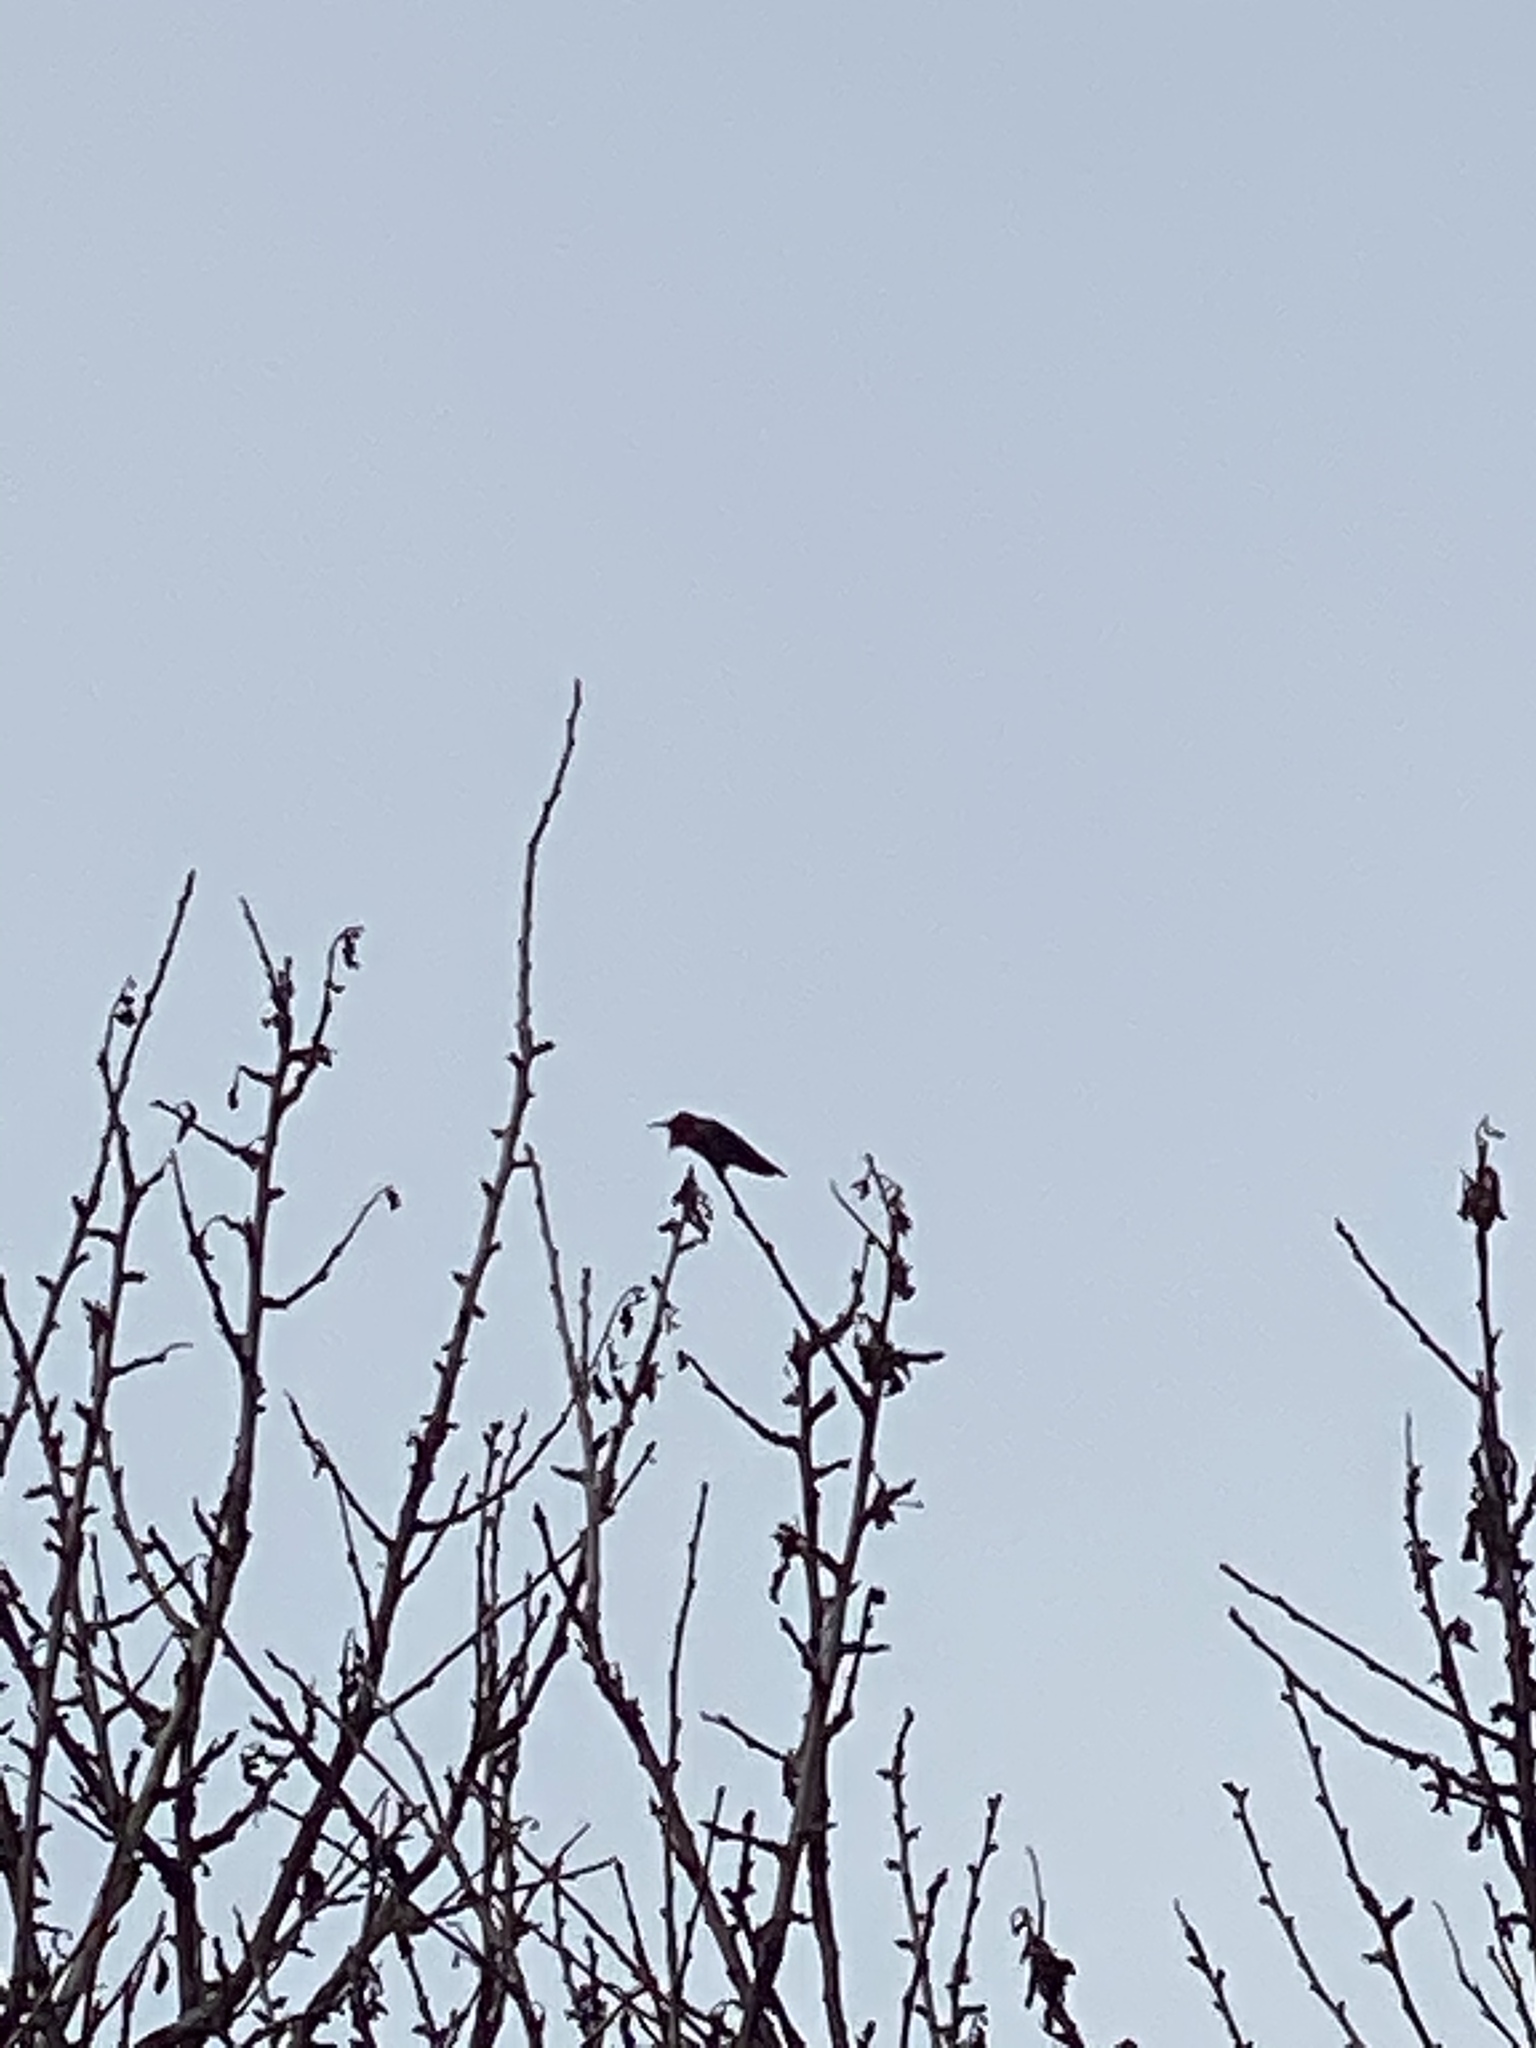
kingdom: Animalia
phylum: Chordata
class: Aves
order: Apodiformes
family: Trochilidae
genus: Calypte
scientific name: Calypte anna
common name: Anna's hummingbird
